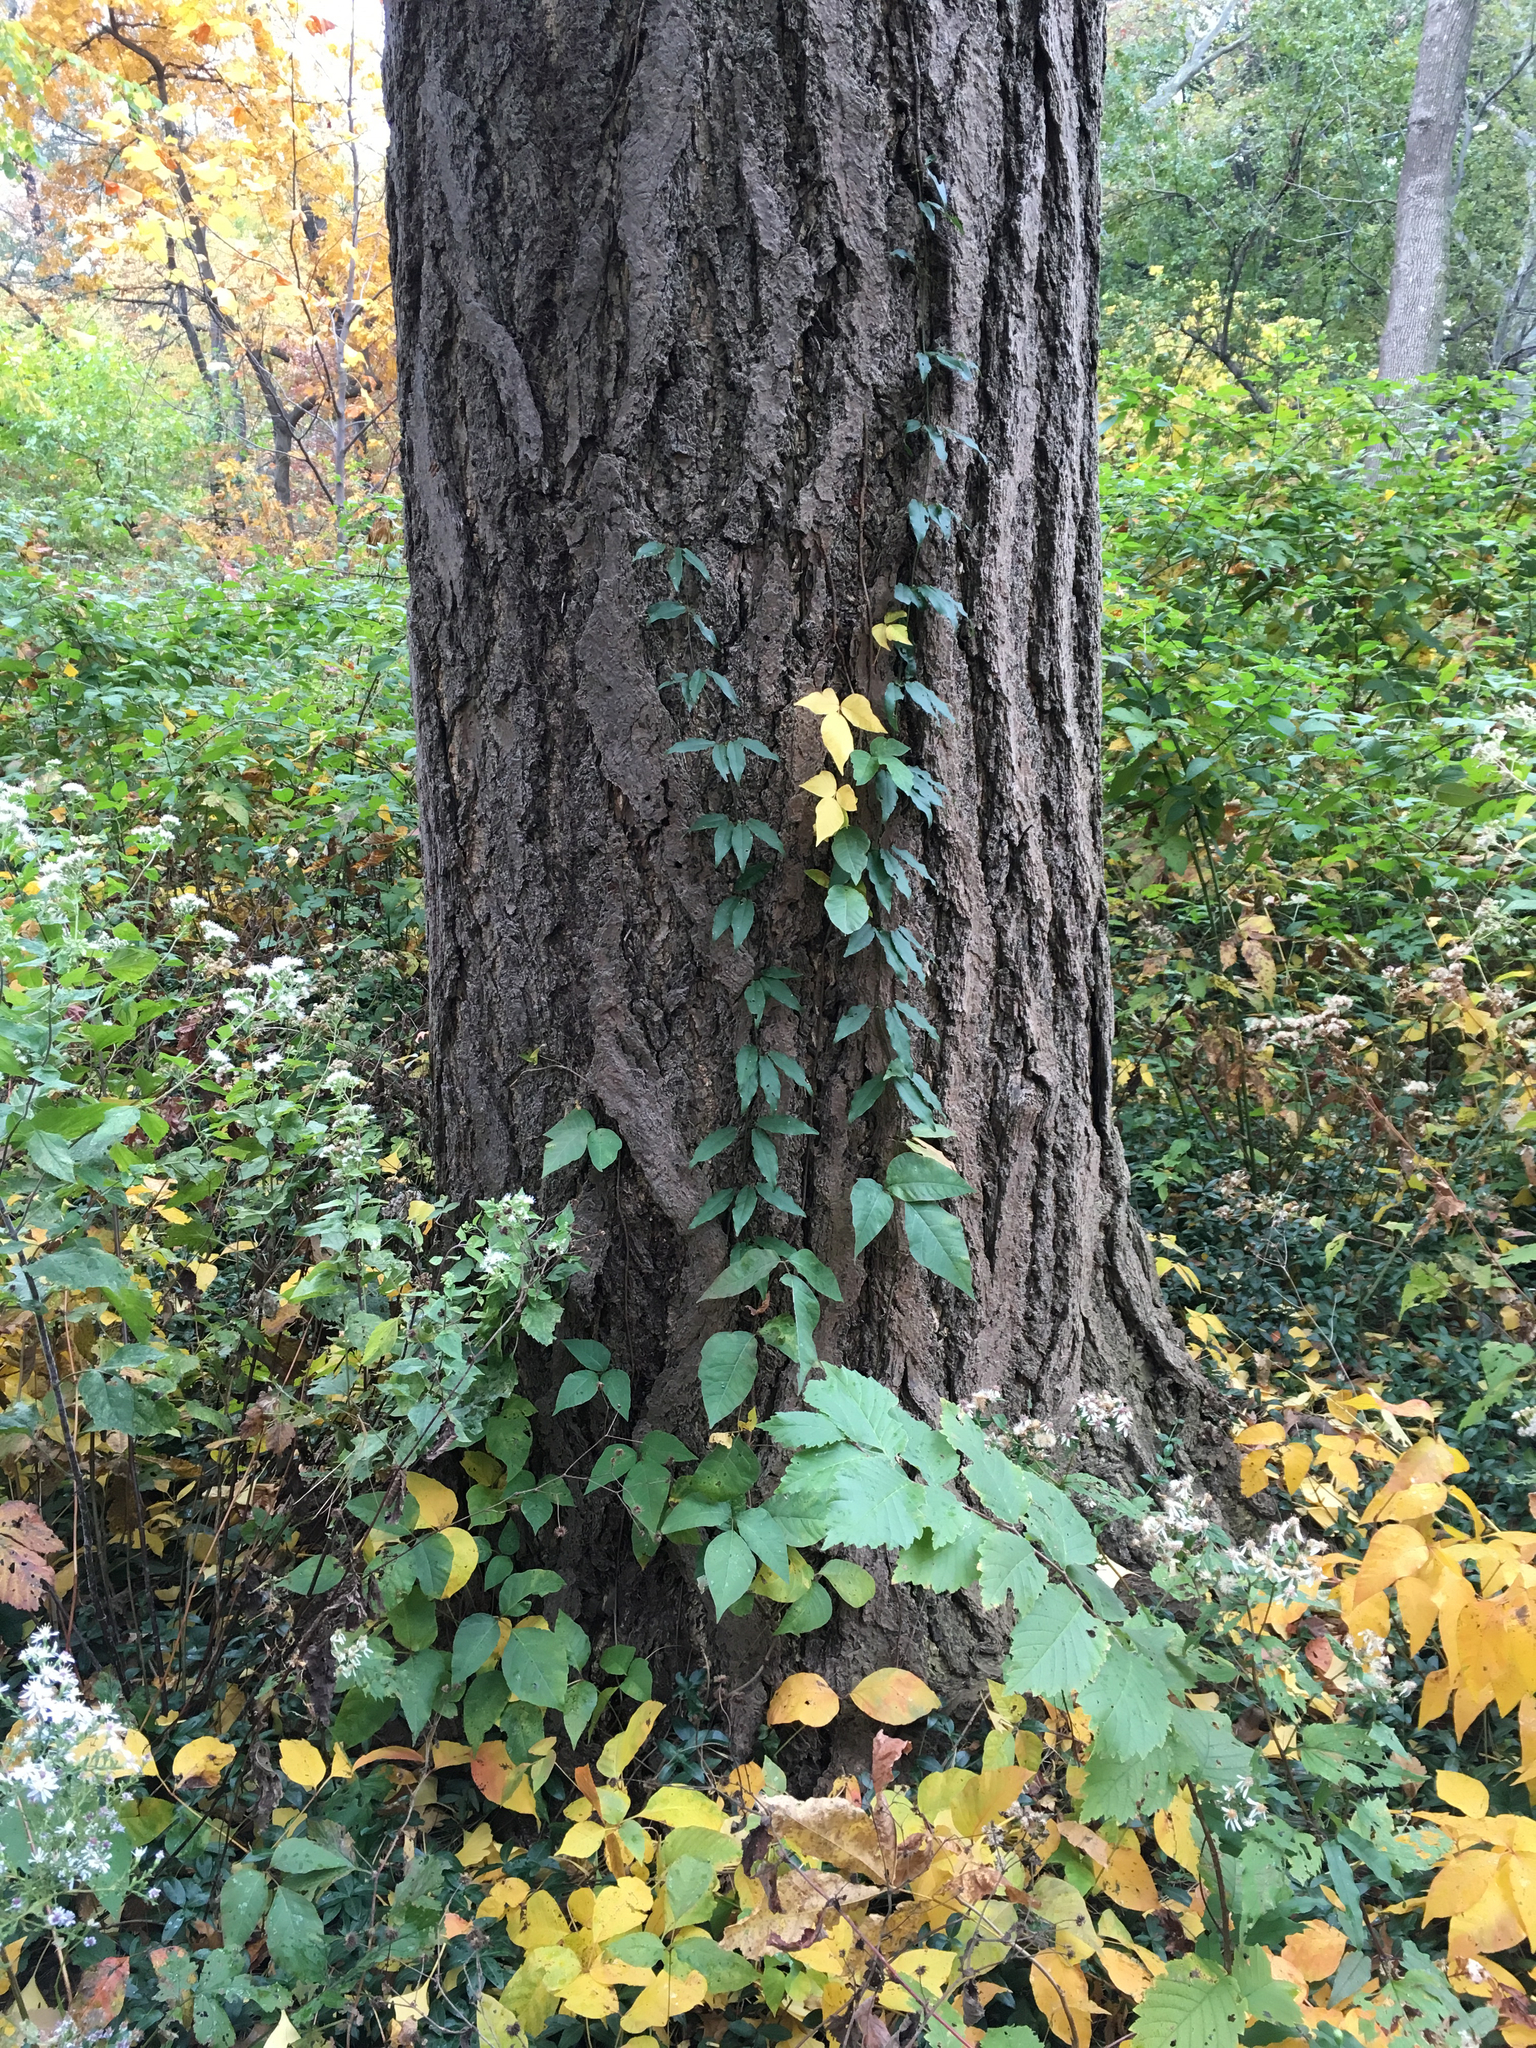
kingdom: Plantae
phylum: Tracheophyta
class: Magnoliopsida
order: Lamiales
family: Bignoniaceae
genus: Bignonia
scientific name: Bignonia capreolata
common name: Crossvine
